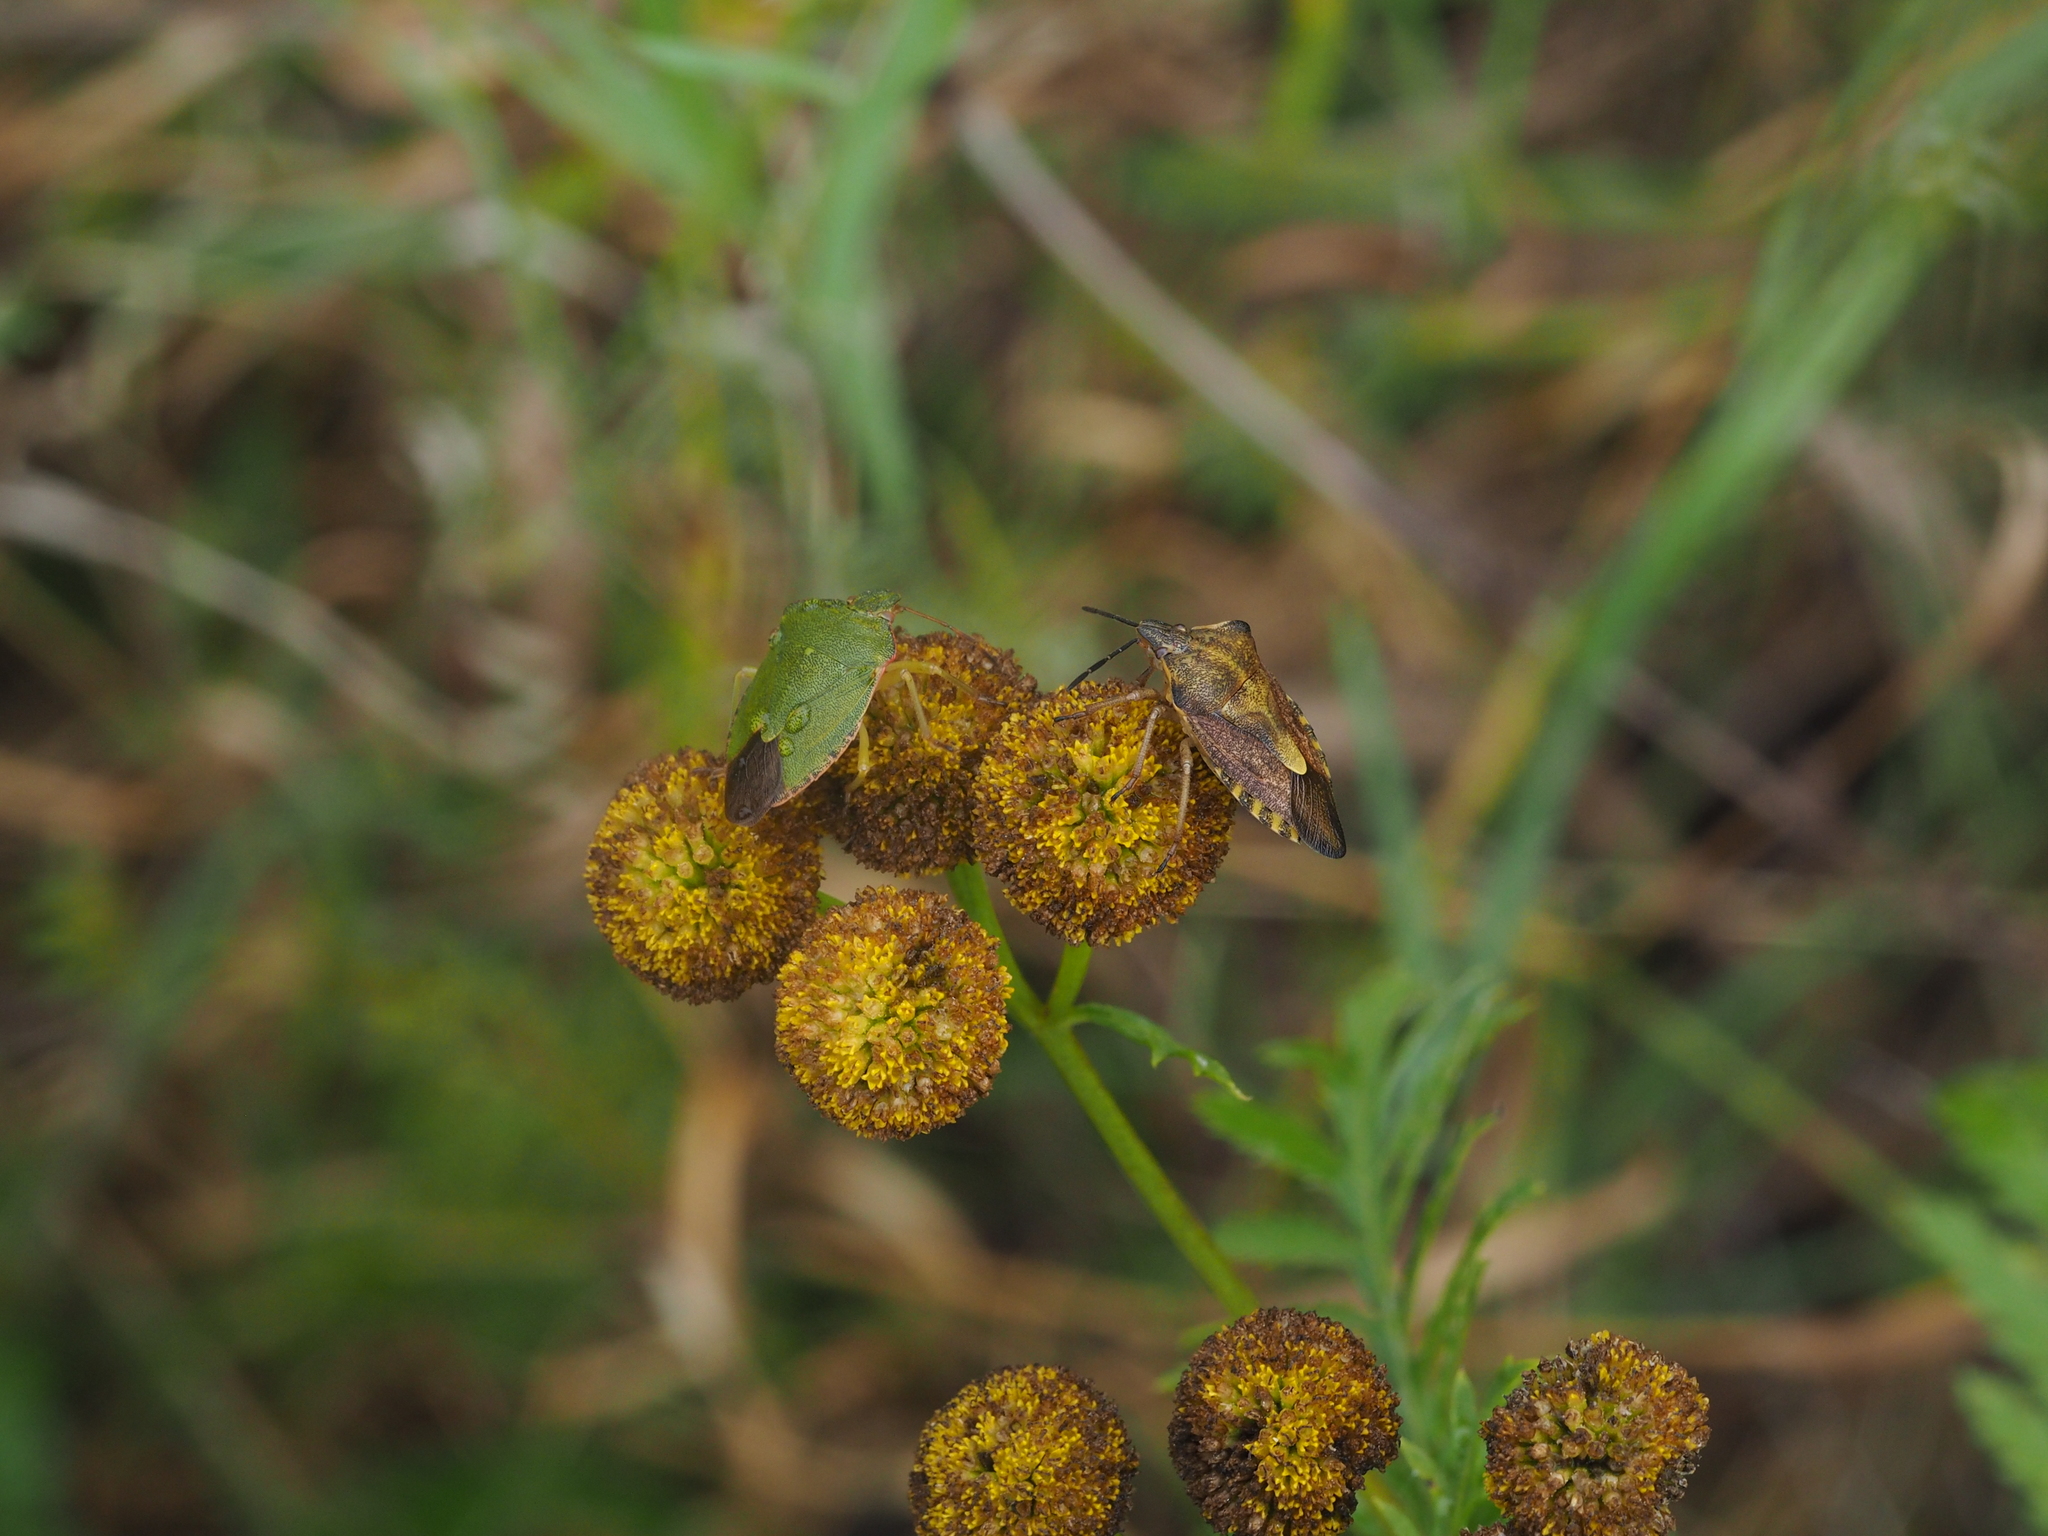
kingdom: Animalia
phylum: Arthropoda
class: Insecta
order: Hemiptera
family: Pentatomidae
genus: Carpocoris
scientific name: Carpocoris purpureipennis
